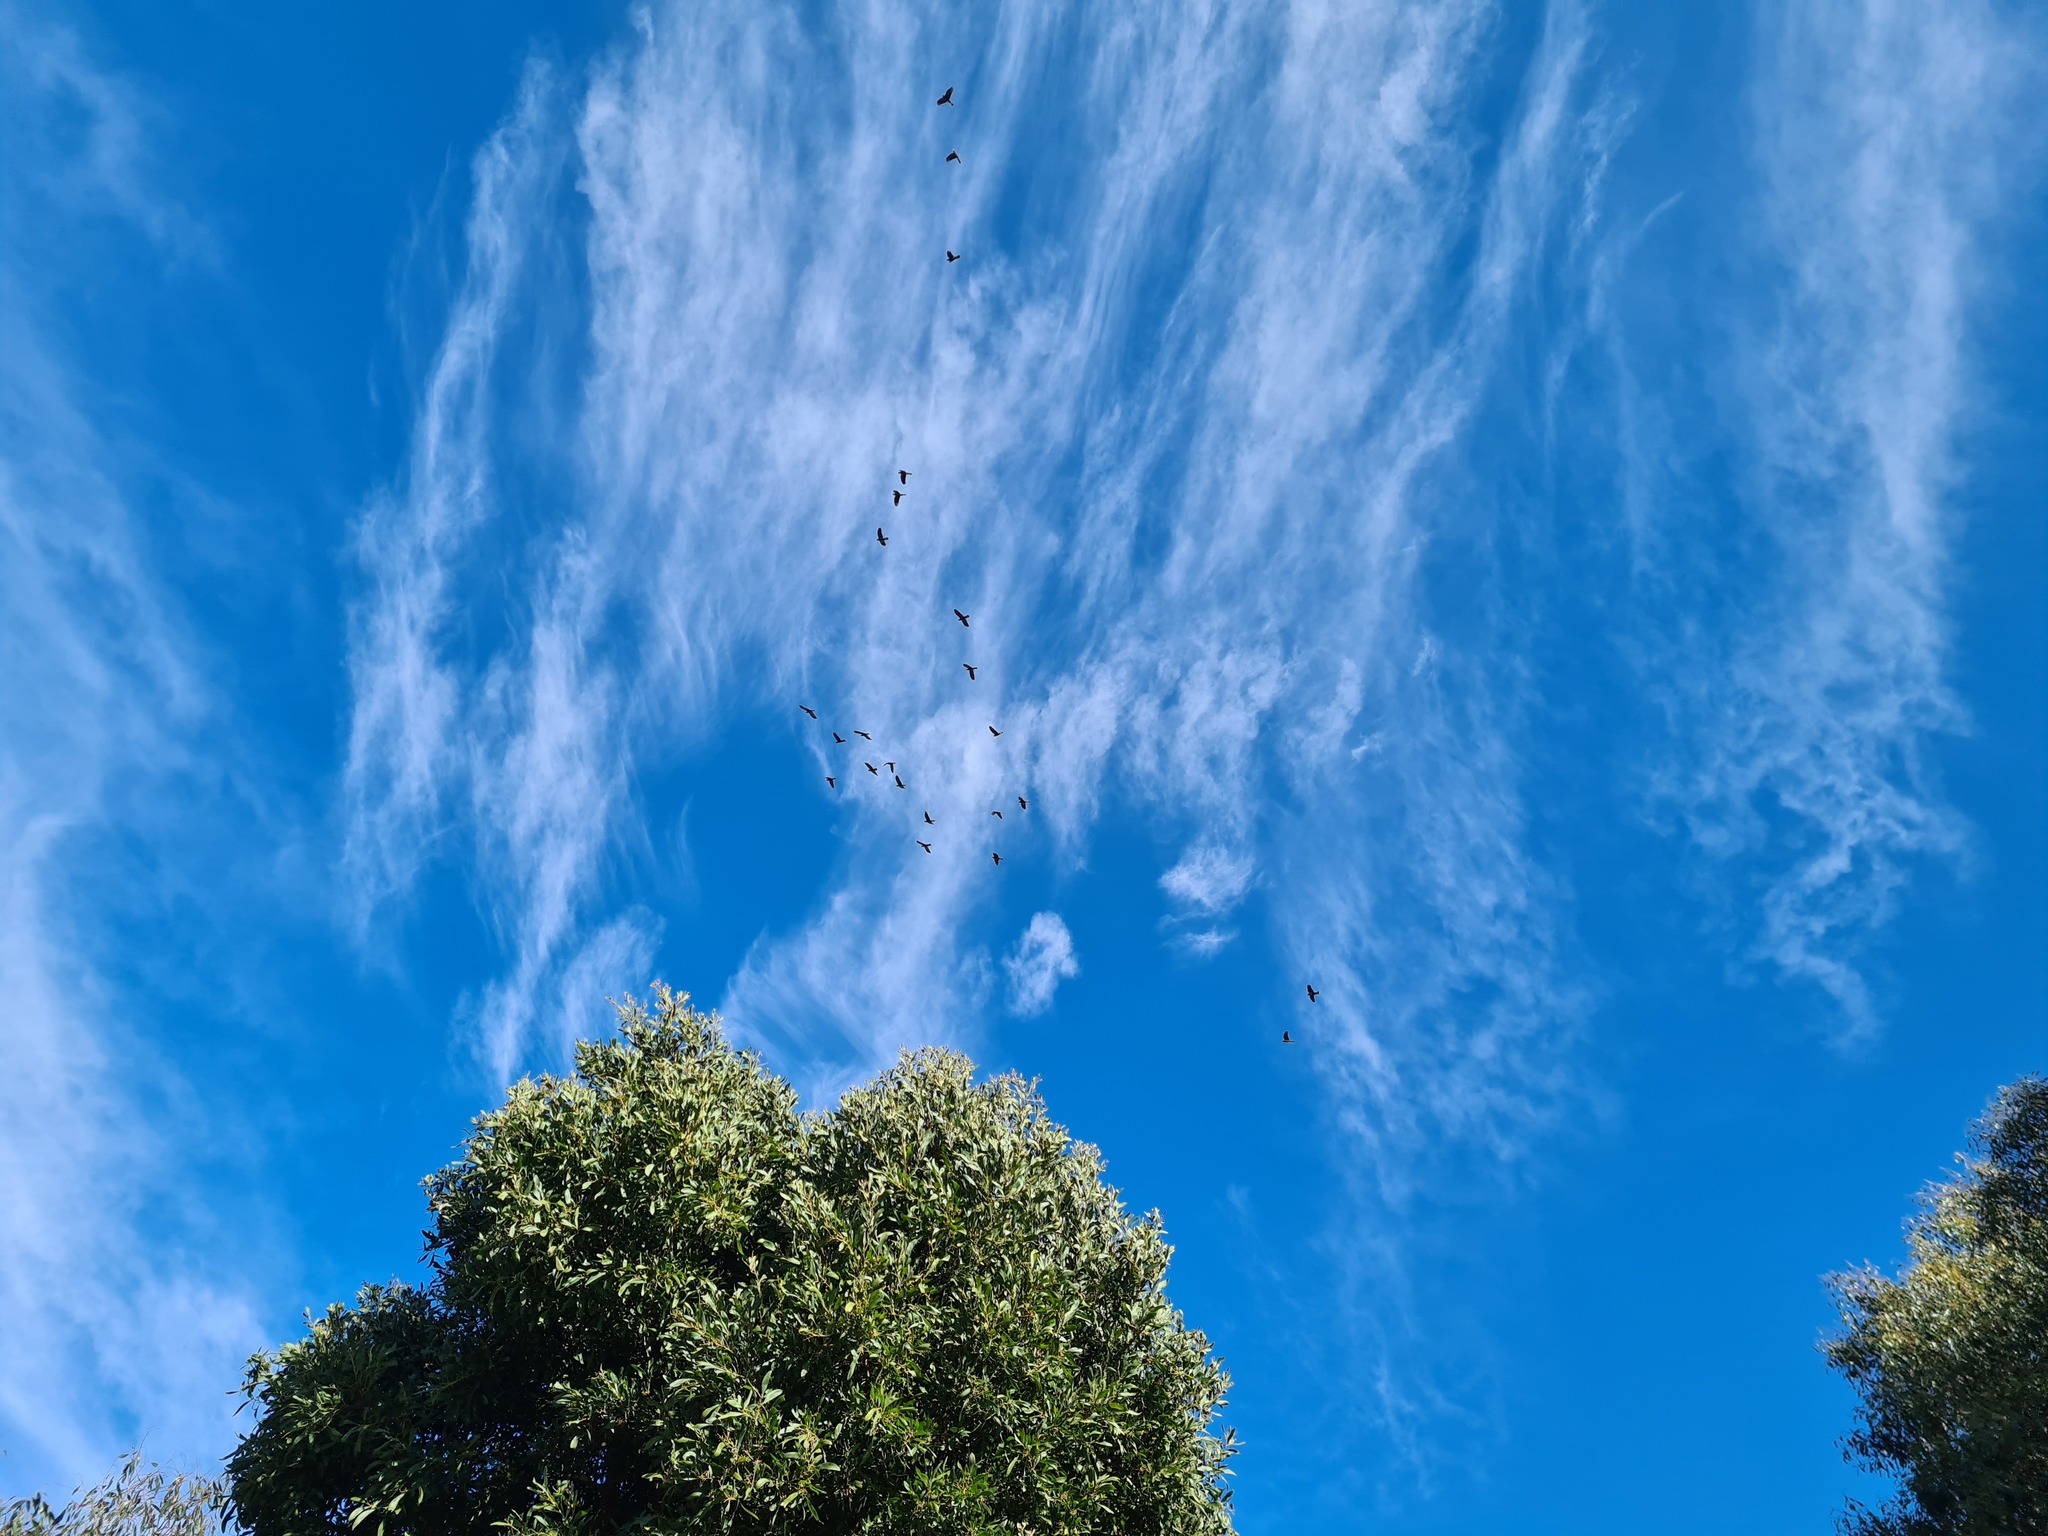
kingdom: Animalia
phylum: Chordata
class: Aves
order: Psittaciformes
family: Cacatuidae
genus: Zanda
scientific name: Zanda funerea
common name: Yellow-tailed black-cockatoo
